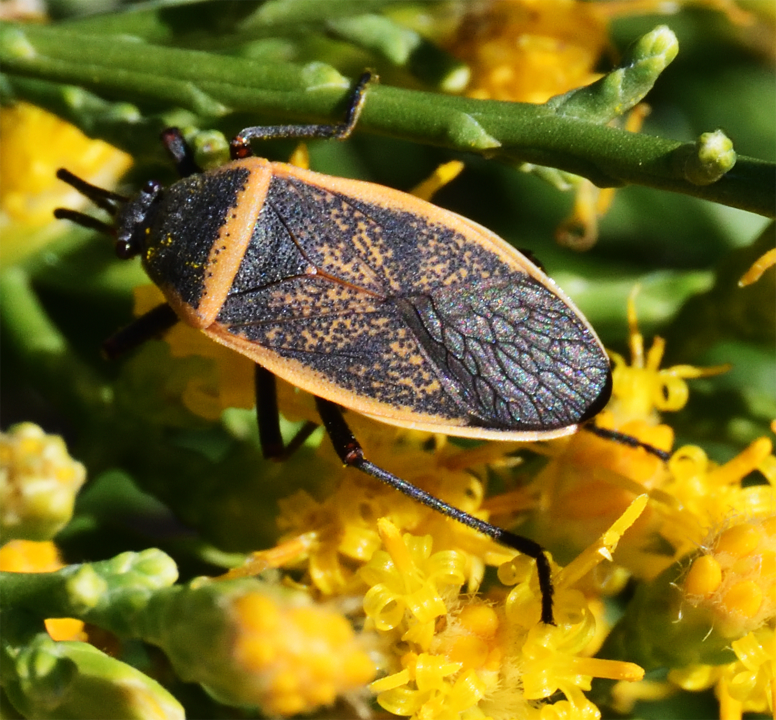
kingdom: Animalia
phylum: Arthropoda
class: Insecta
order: Hemiptera
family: Largidae
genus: Largus
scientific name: Largus californicus
